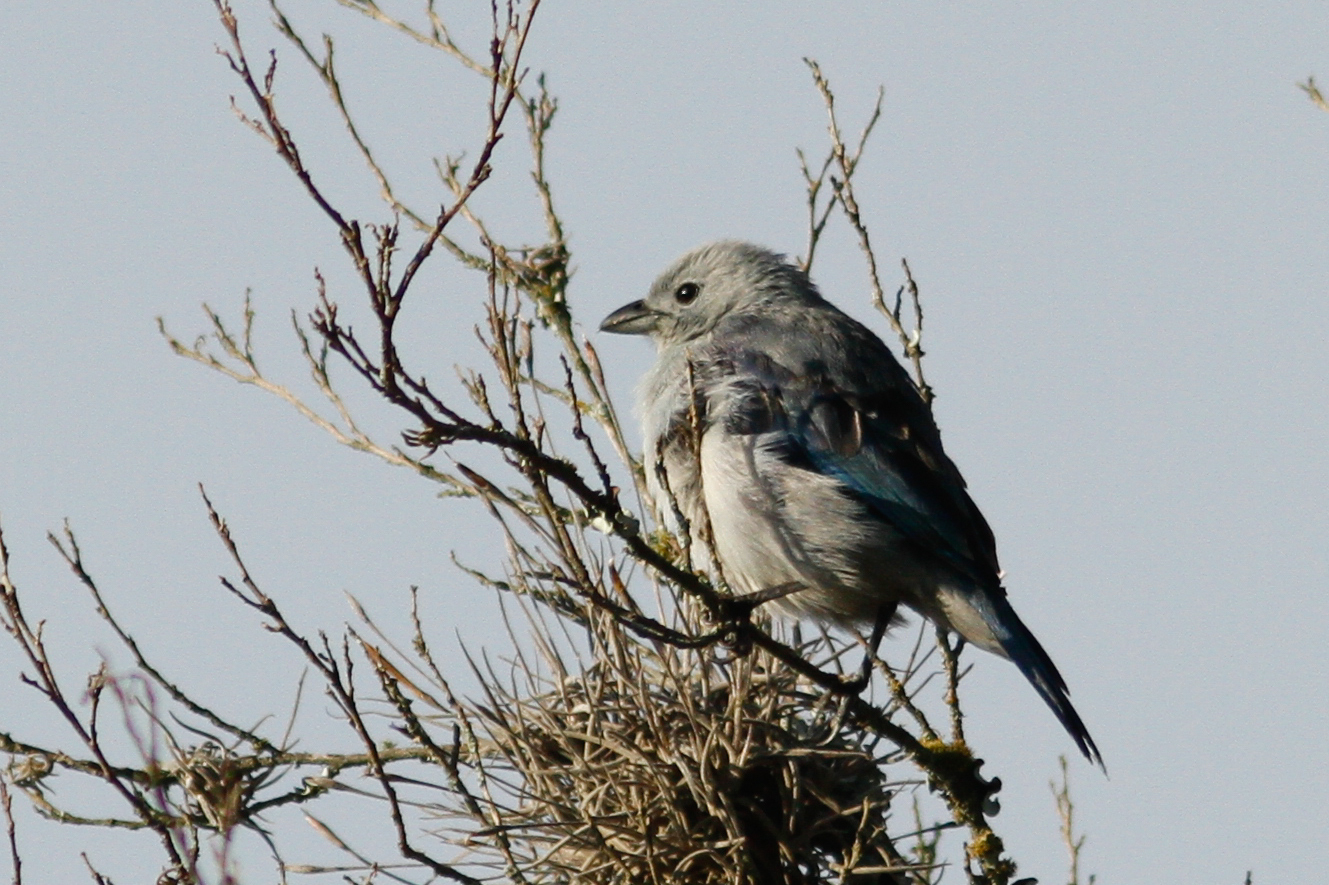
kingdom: Animalia
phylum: Chordata
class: Aves
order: Passeriformes
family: Thraupidae
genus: Thraupis
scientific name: Thraupis episcopus
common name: Blue-grey tanager
